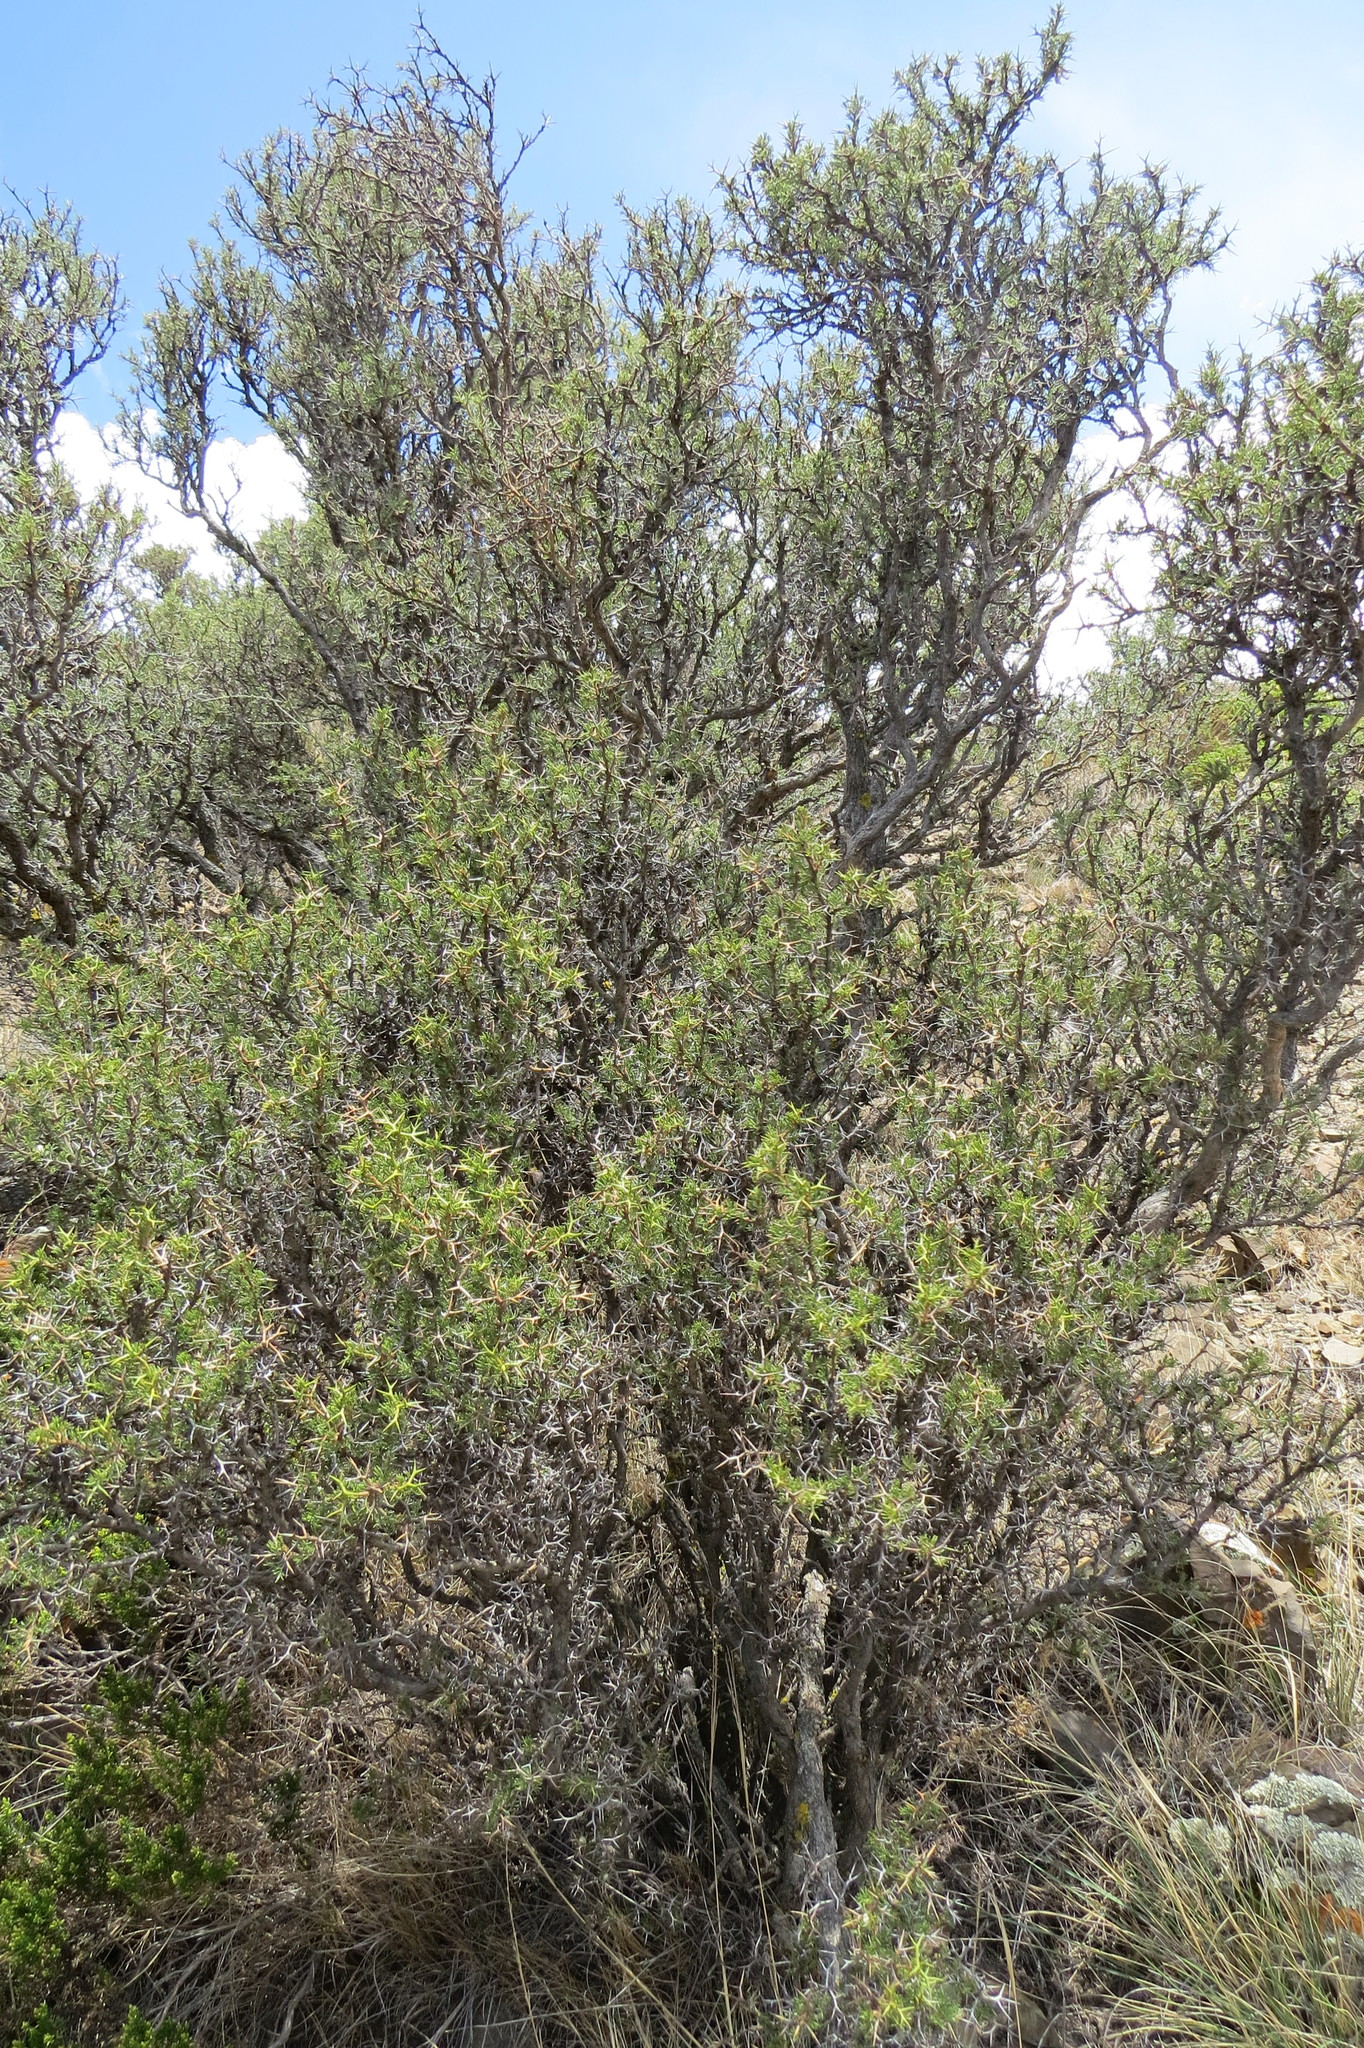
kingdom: Plantae
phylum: Tracheophyta
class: Magnoliopsida
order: Fabales
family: Fabaceae
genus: Adesmia
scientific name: Adesmia pinifolia
